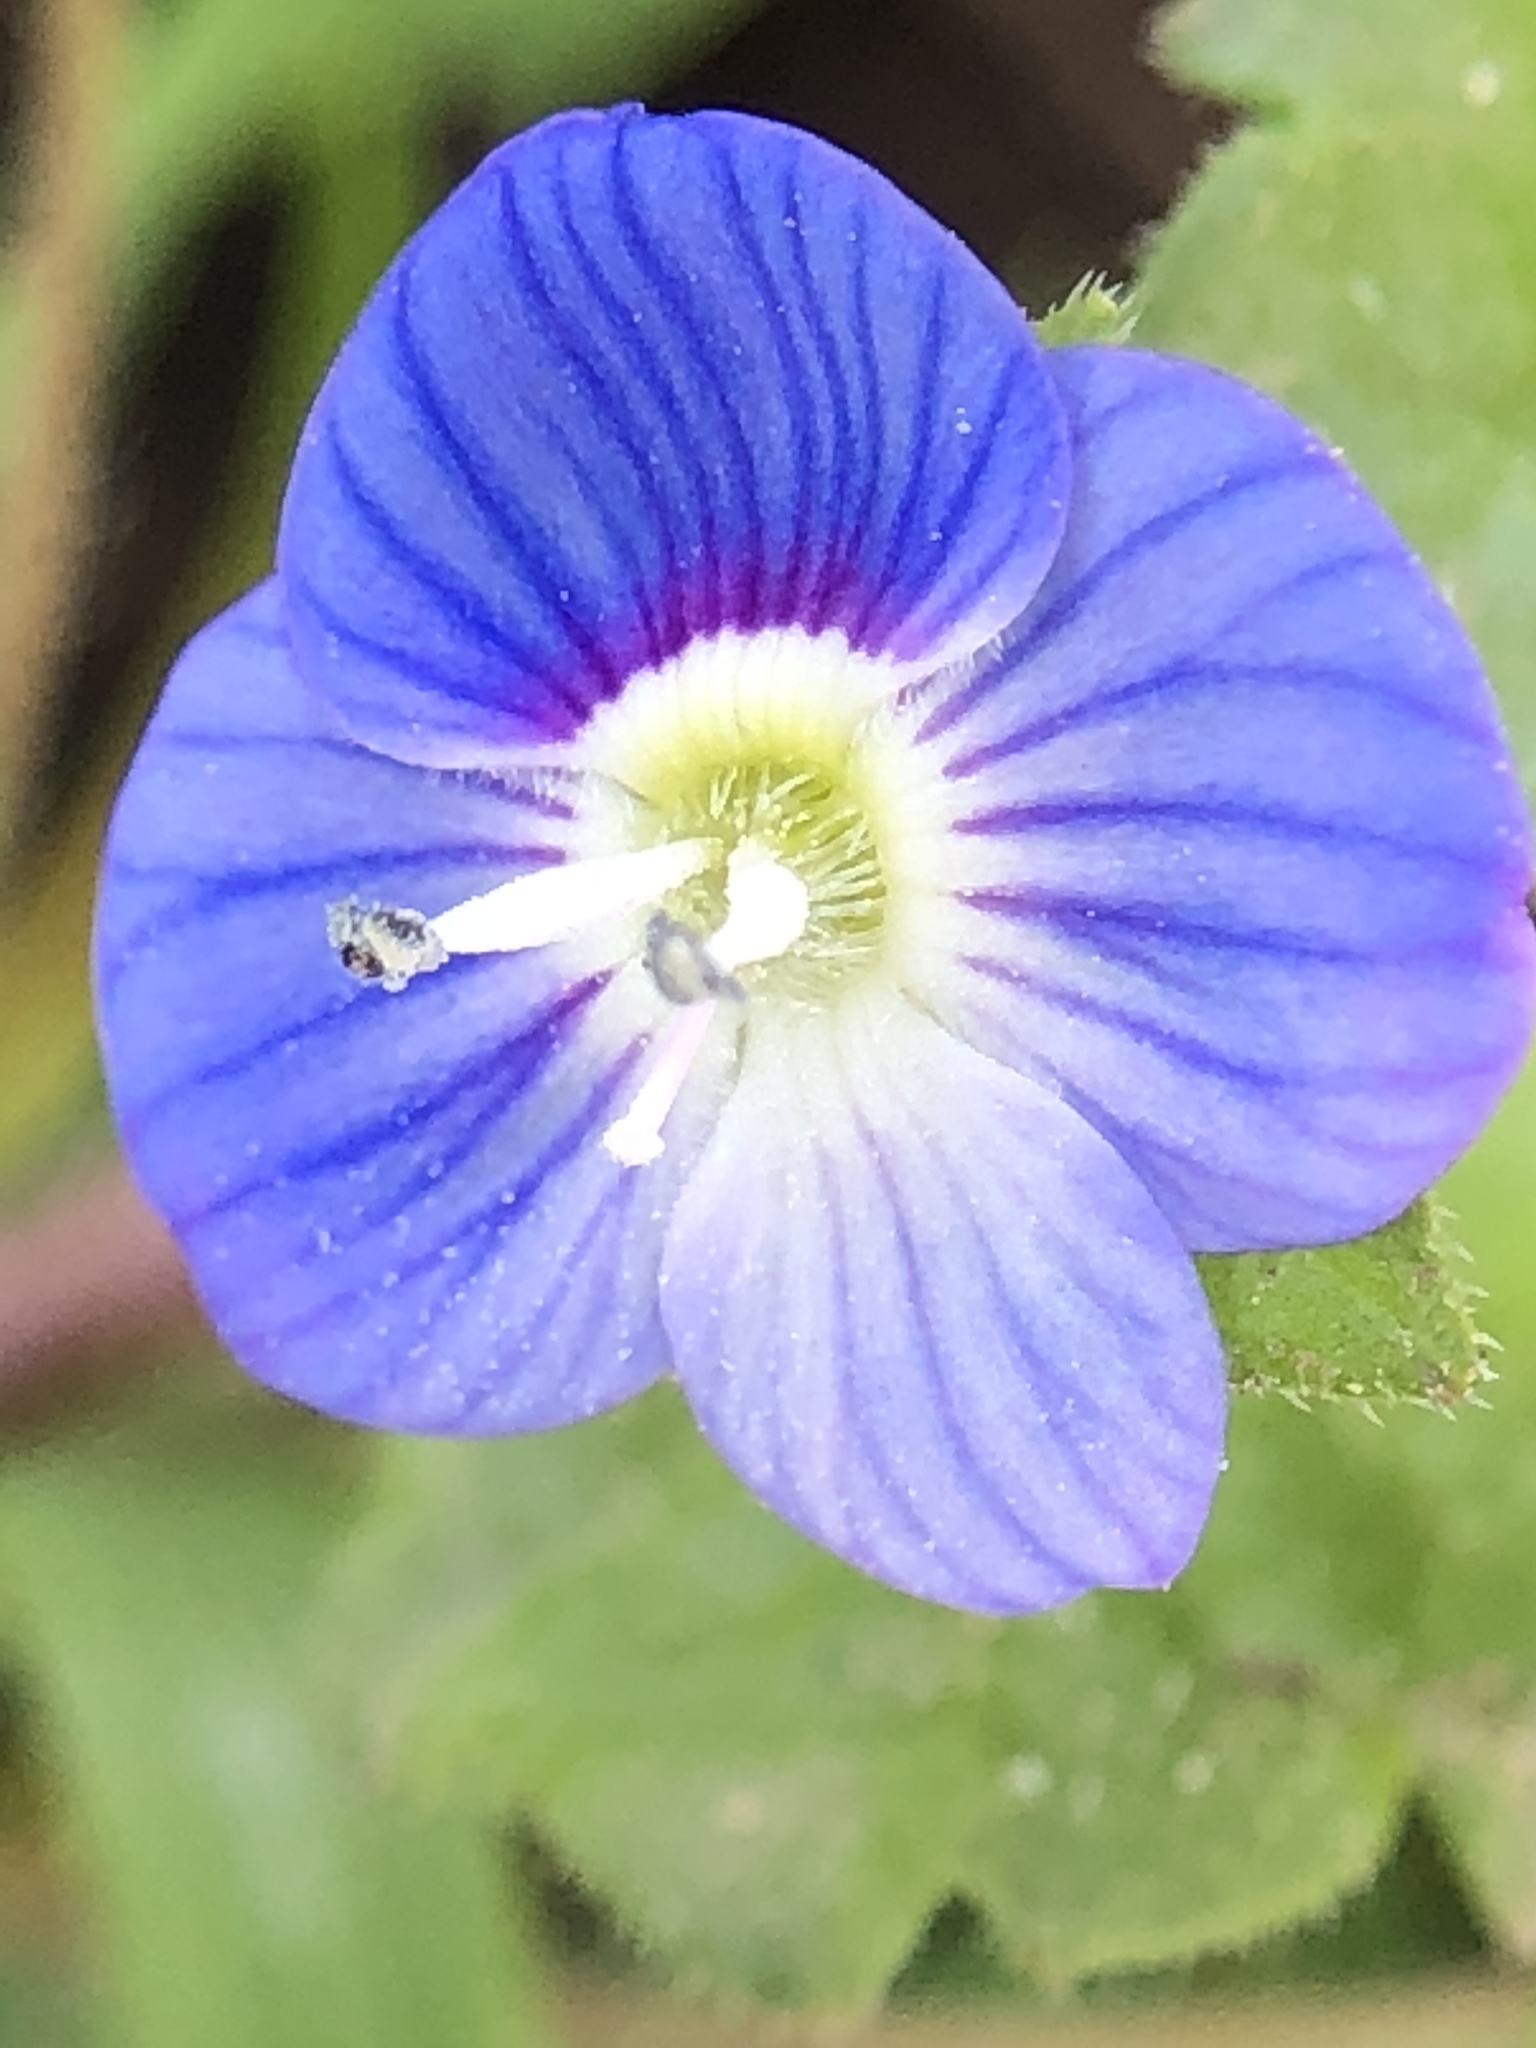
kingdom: Plantae
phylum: Tracheophyta
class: Magnoliopsida
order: Lamiales
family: Plantaginaceae
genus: Veronica
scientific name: Veronica persica
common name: Common field-speedwell
